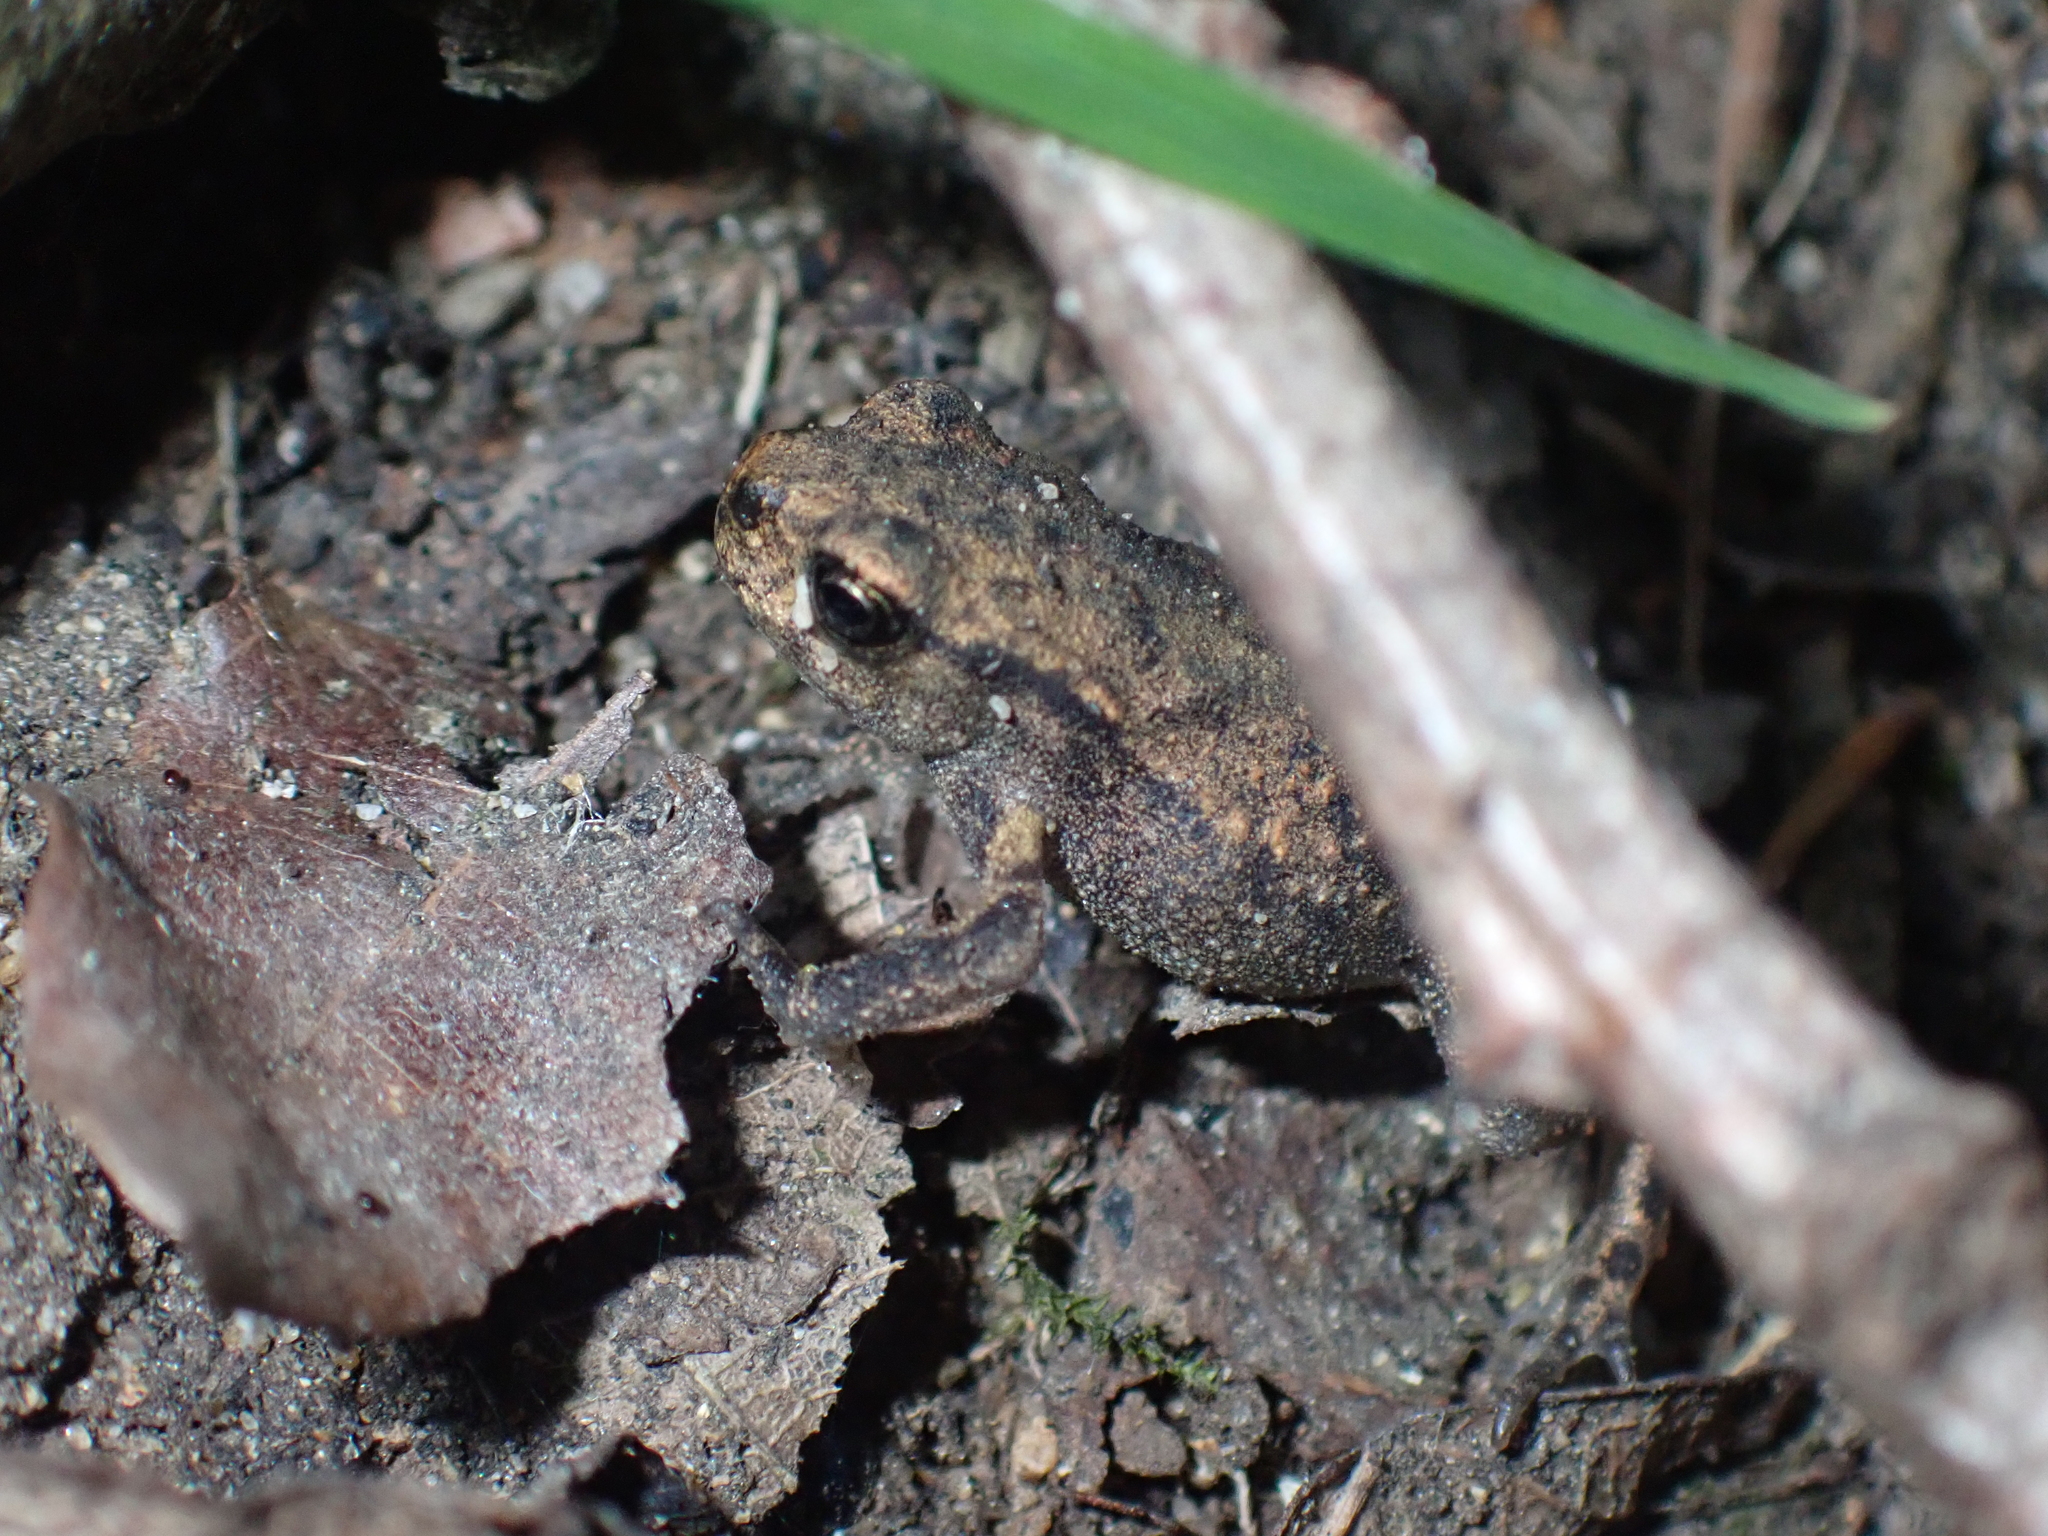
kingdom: Animalia
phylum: Chordata
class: Amphibia
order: Anura
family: Bufonidae
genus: Bufo
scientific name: Bufo spinosus
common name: Western common toad
